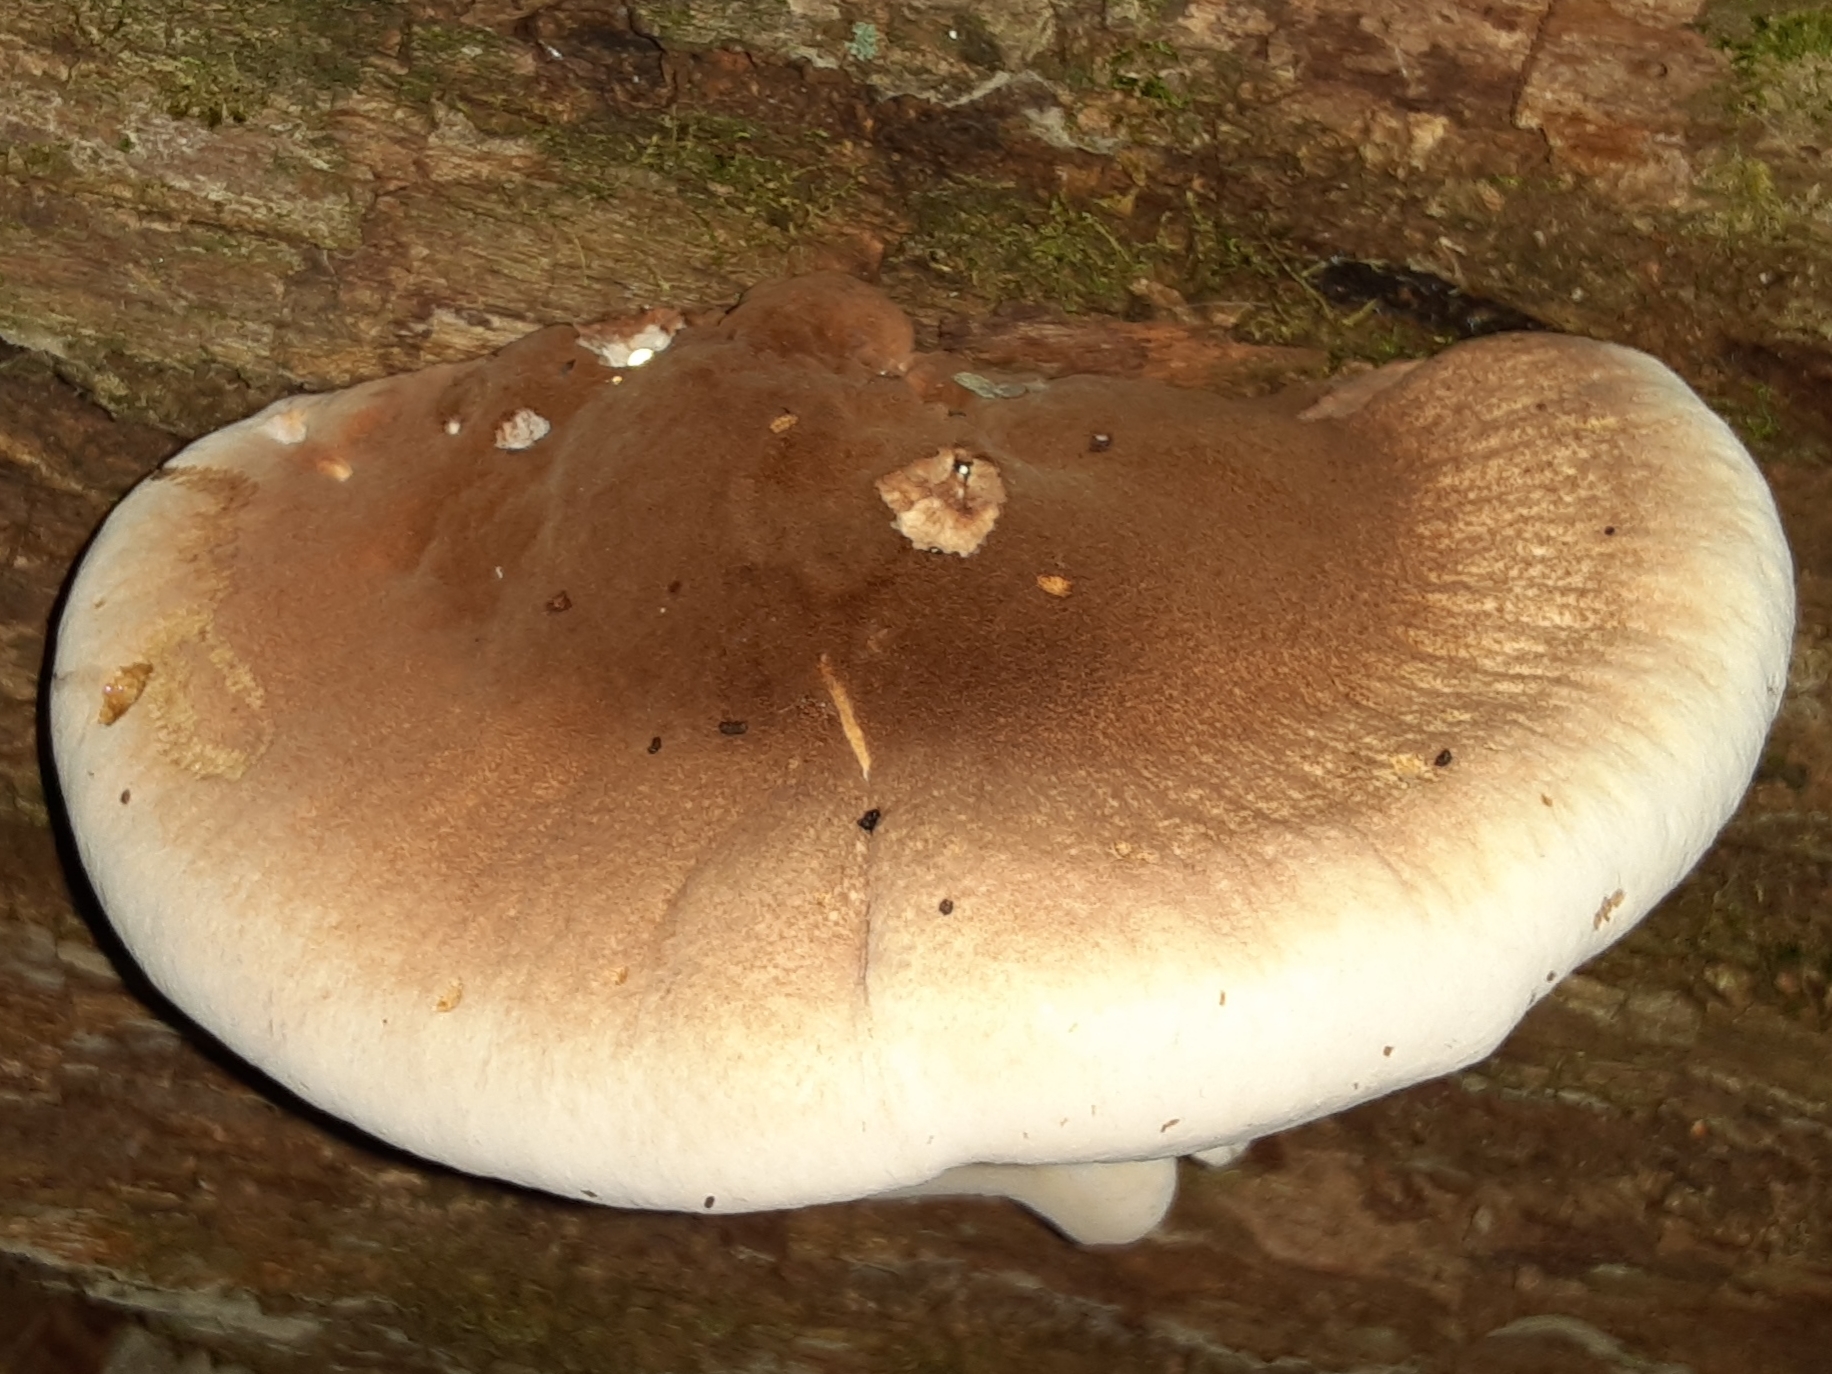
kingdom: Fungi
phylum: Basidiomycota
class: Agaricomycetes
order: Polyporales
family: Ischnodermataceae
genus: Ischnoderma
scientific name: Ischnoderma resinosum
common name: Resinous polypore
